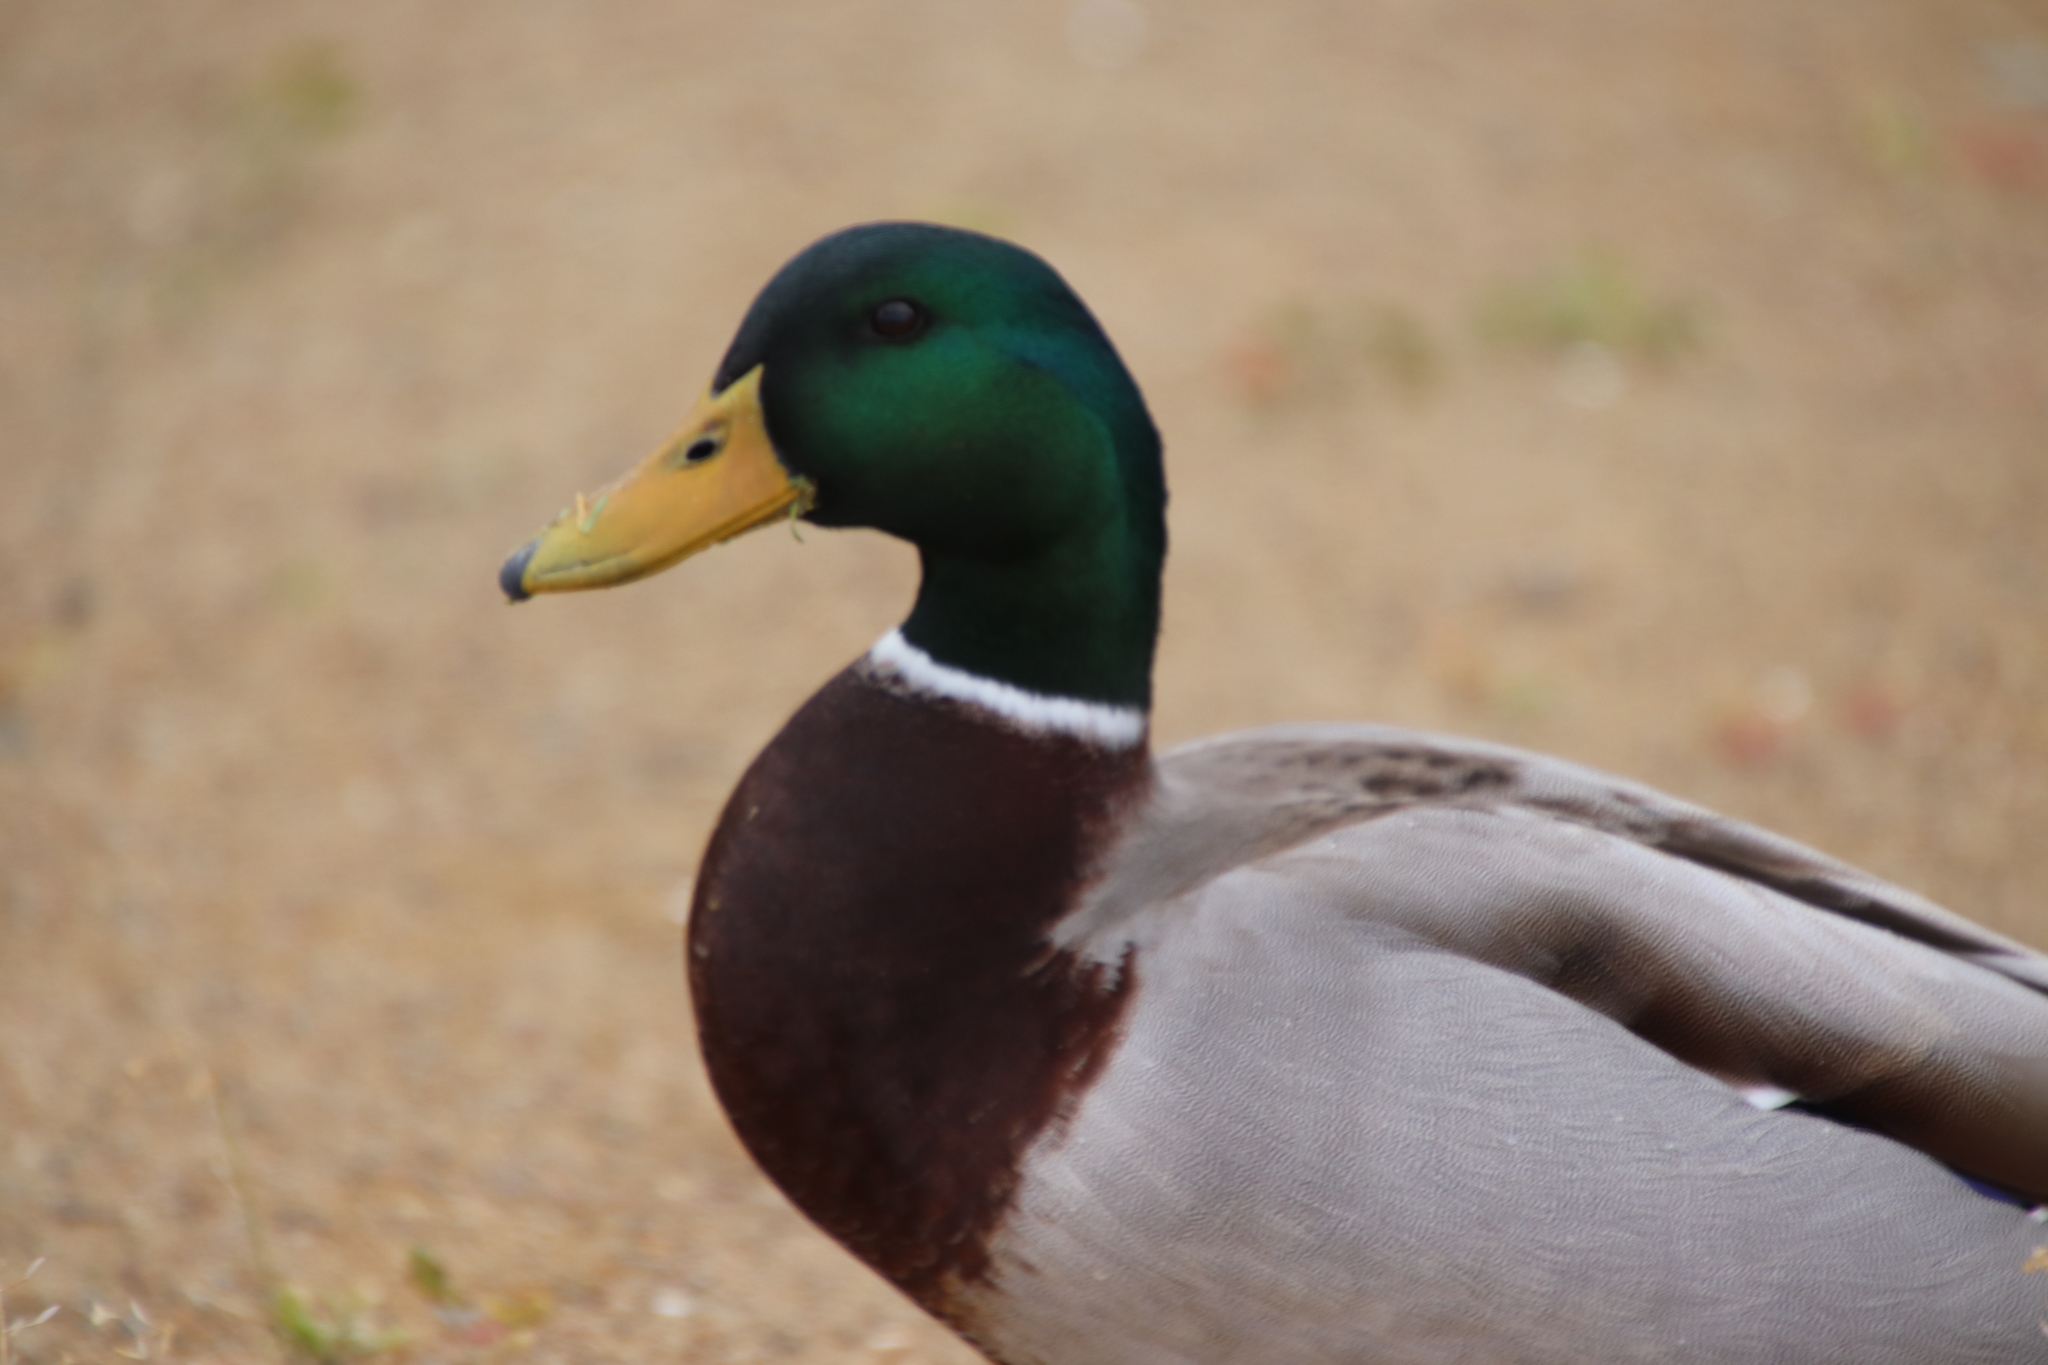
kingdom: Animalia
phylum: Chordata
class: Aves
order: Anseriformes
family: Anatidae
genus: Anas
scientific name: Anas platyrhynchos
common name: Mallard
